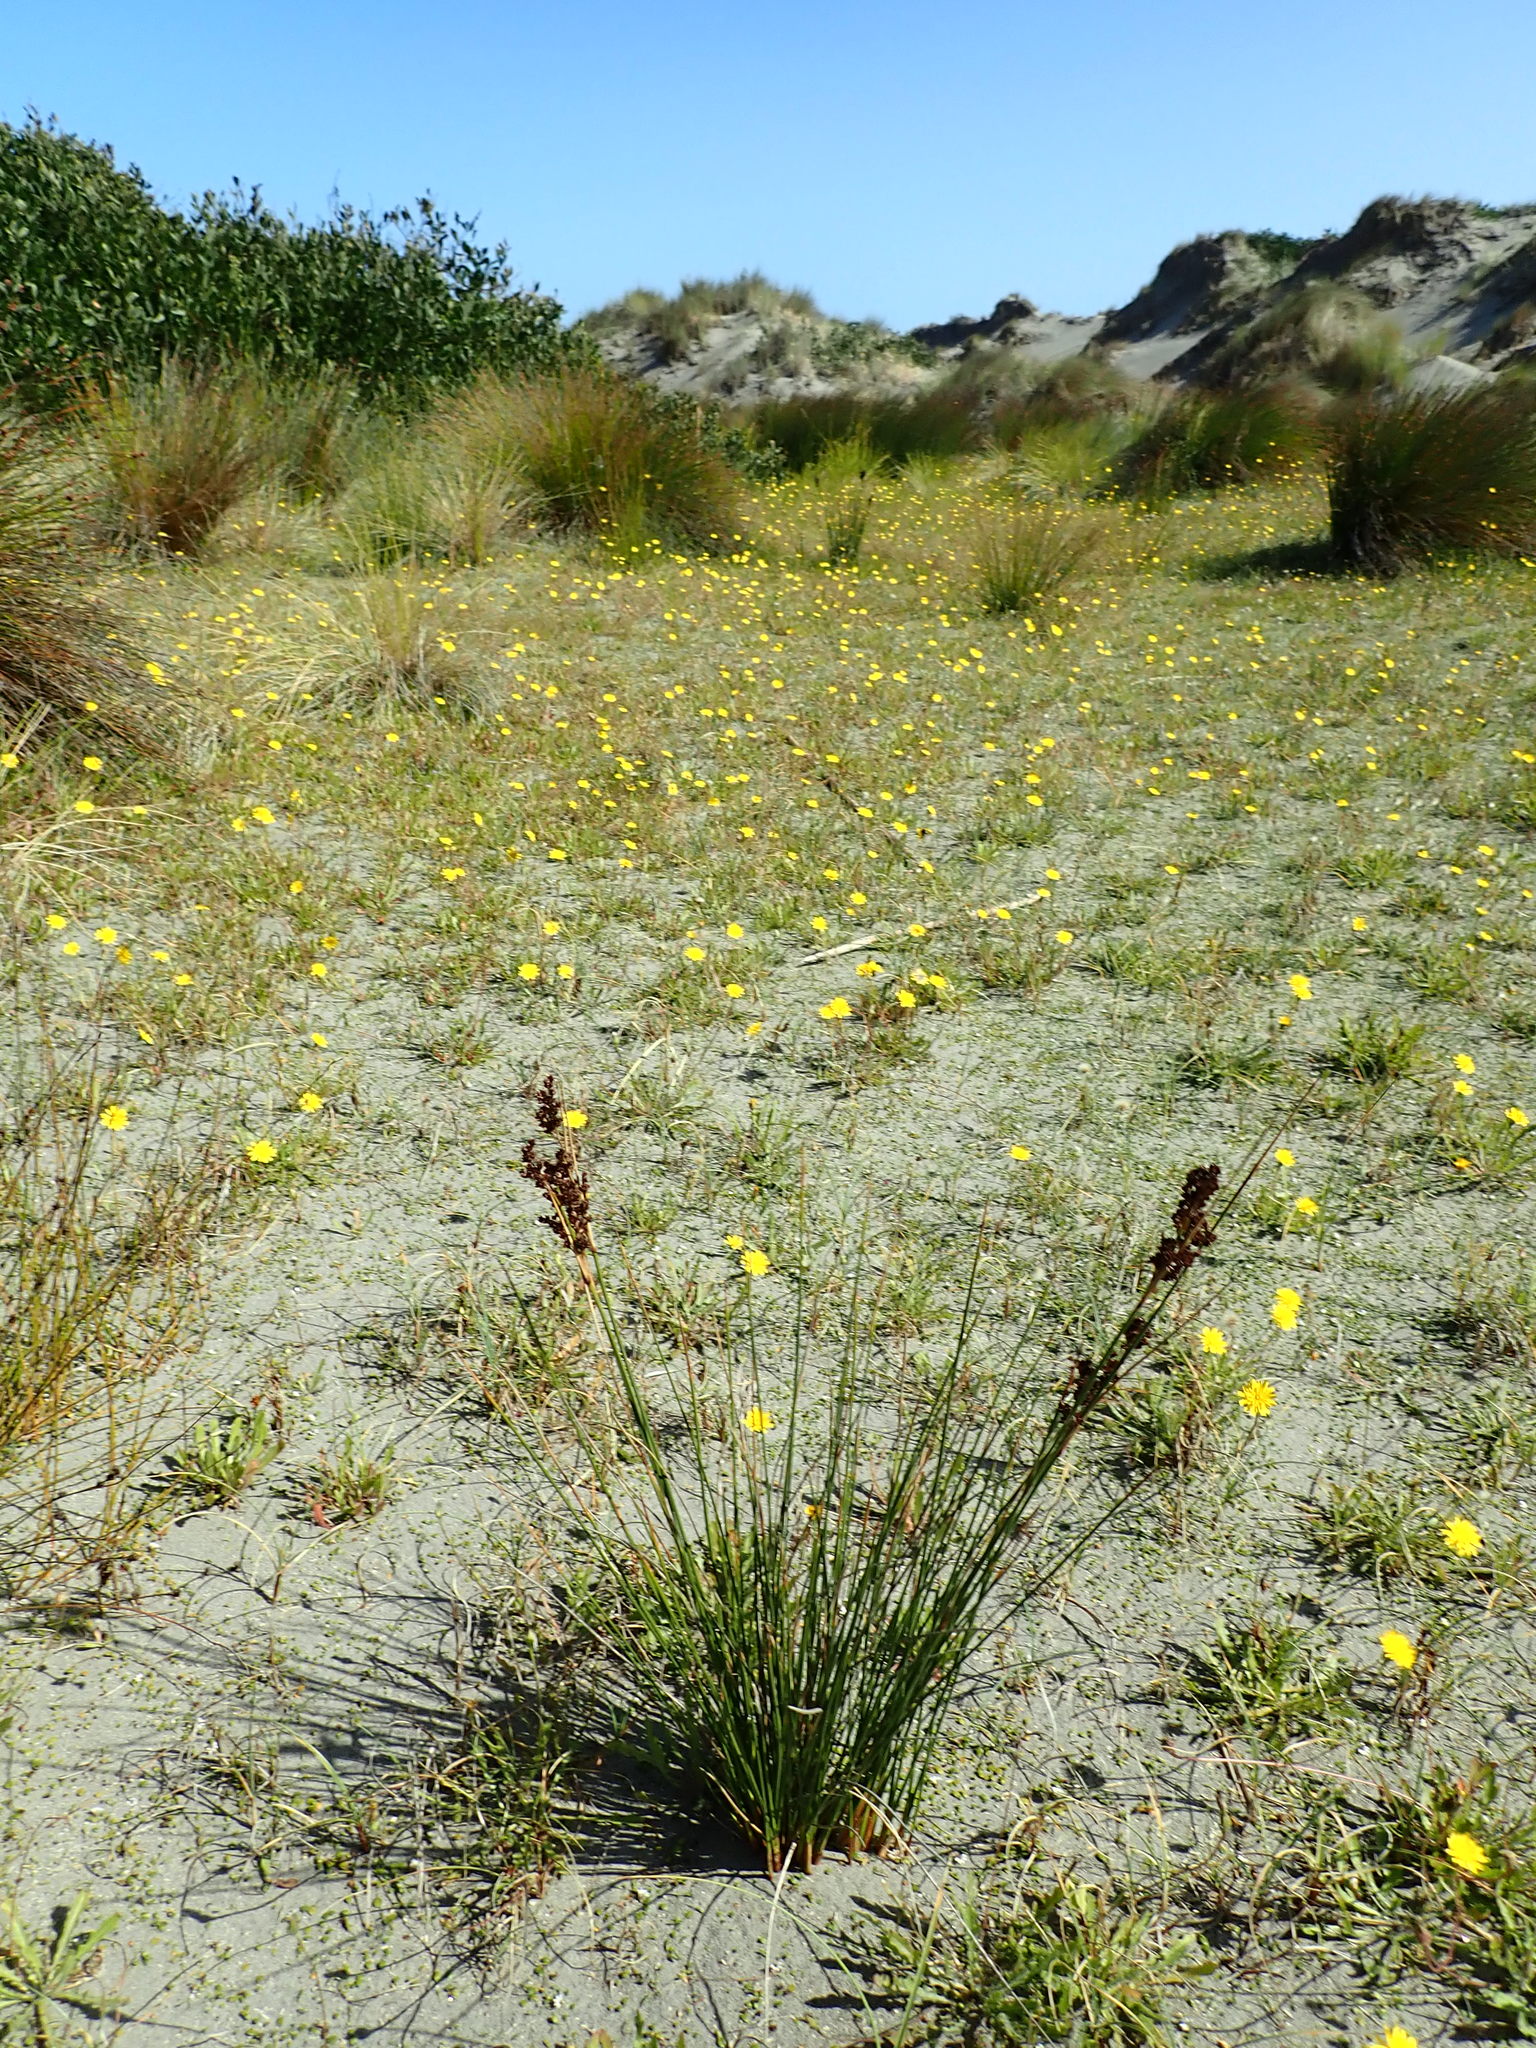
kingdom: Plantae
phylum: Tracheophyta
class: Liliopsida
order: Poales
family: Juncaceae
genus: Juncus
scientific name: Juncus kraussii
